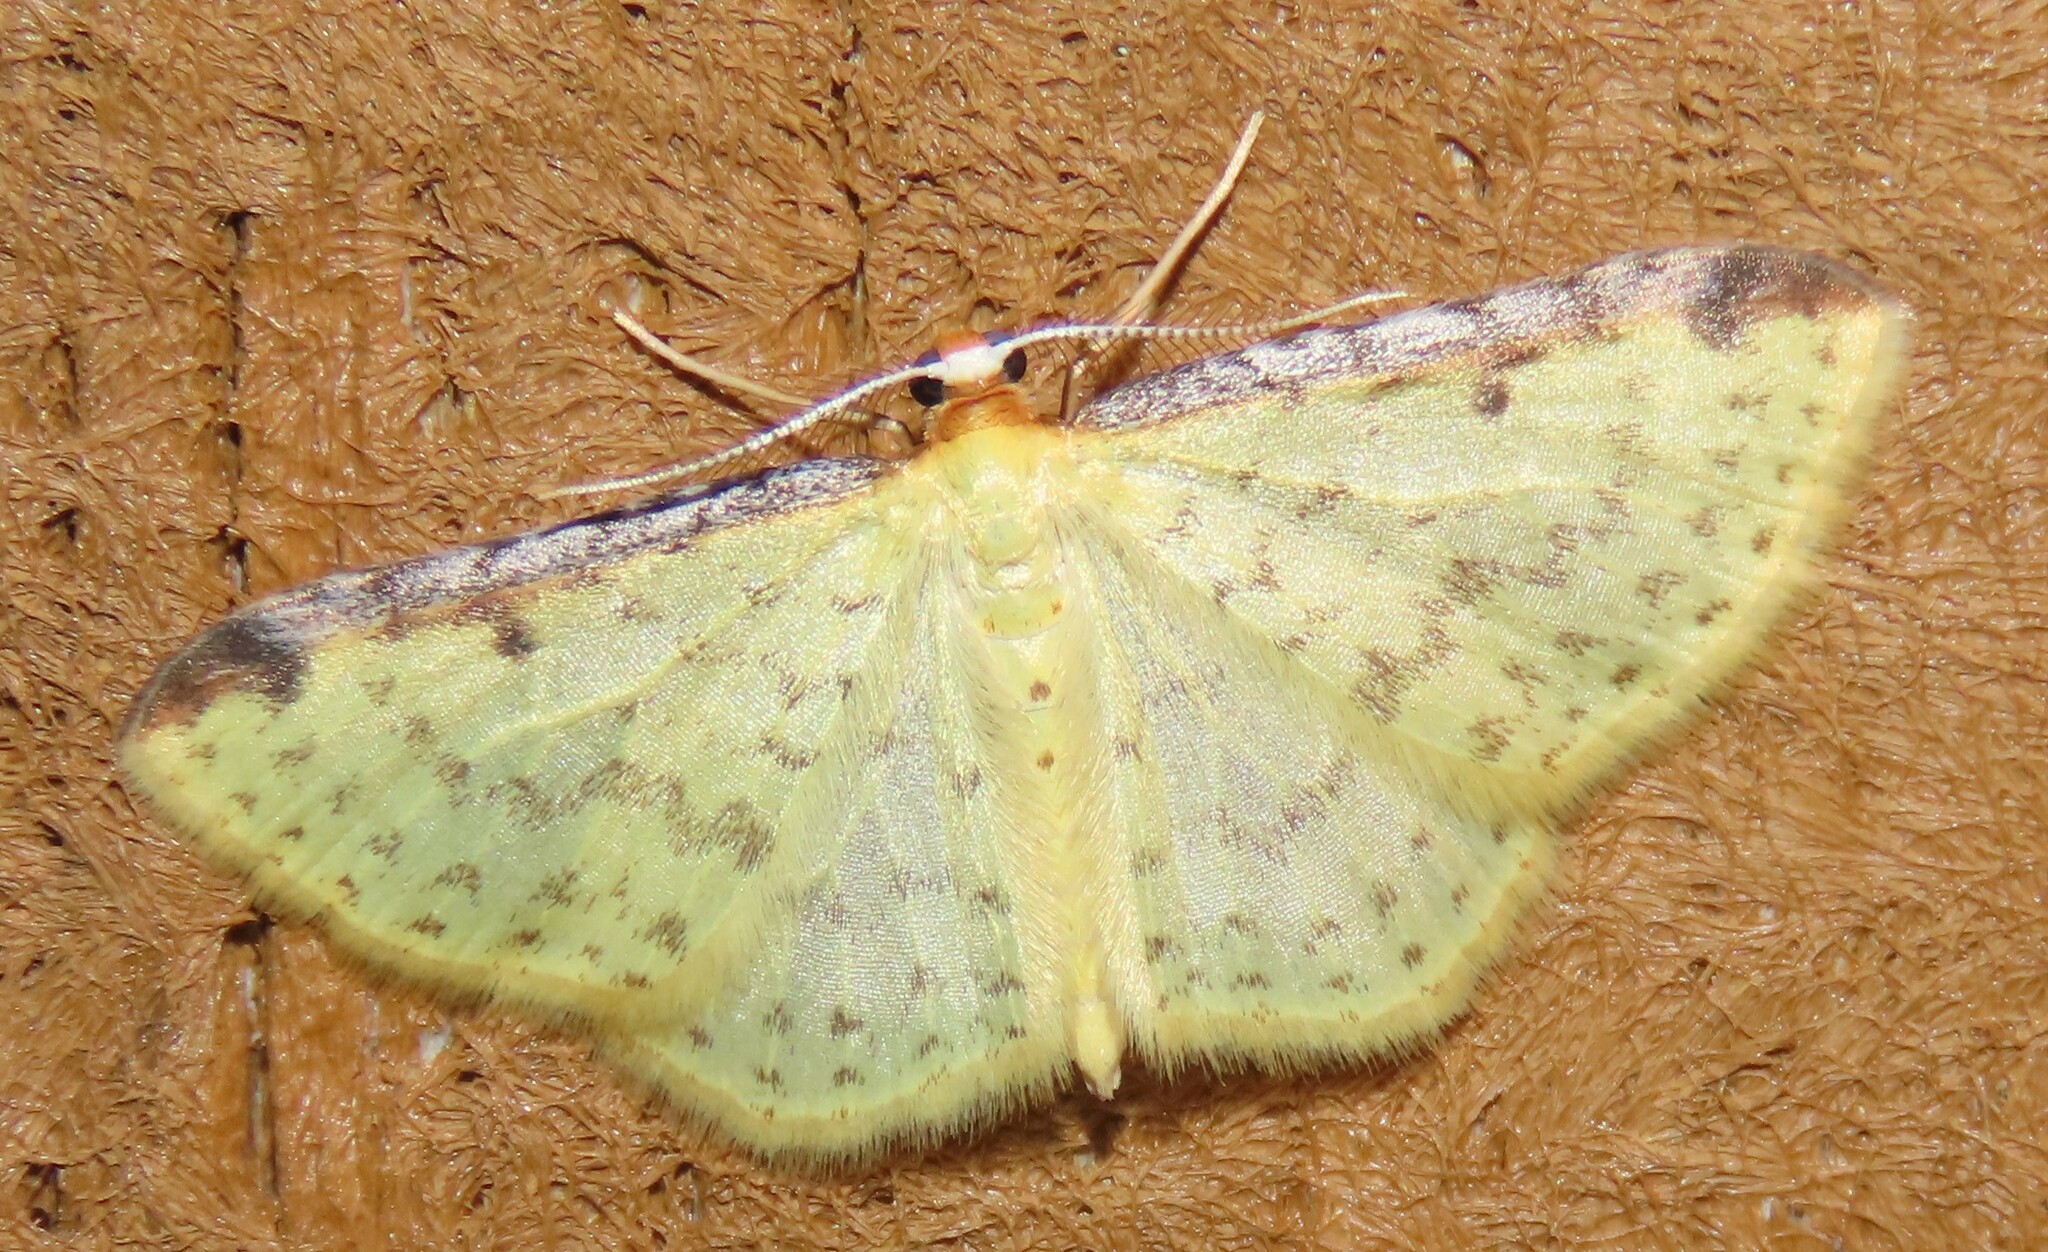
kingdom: Animalia
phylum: Arthropoda
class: Insecta
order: Lepidoptera
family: Geometridae
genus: Epiphryne
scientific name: Epiphryne undosata
